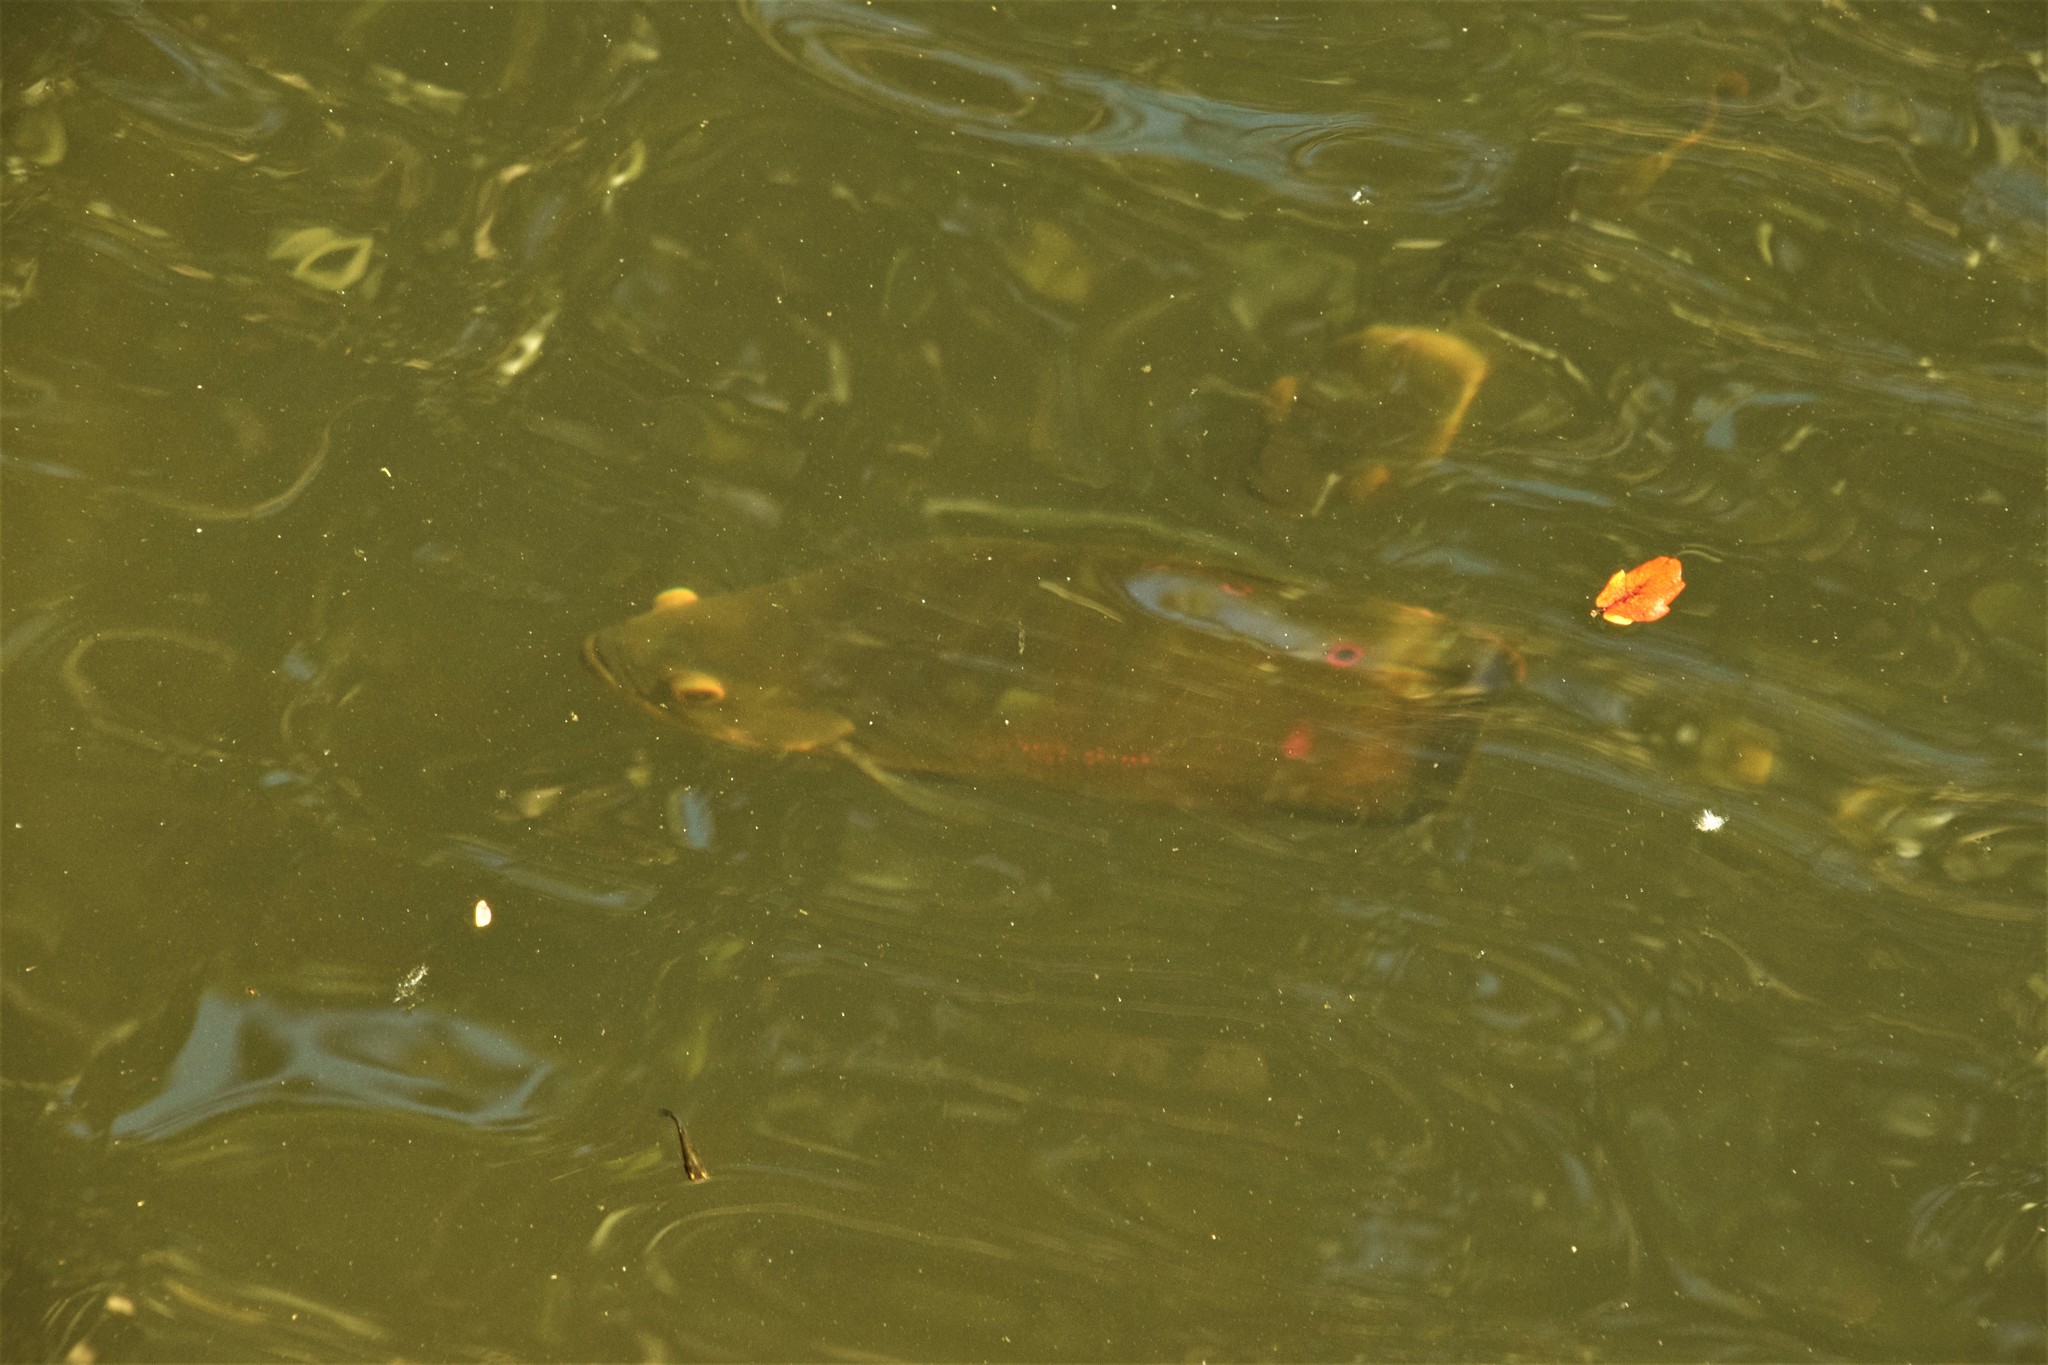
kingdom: Animalia
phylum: Chordata
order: Perciformes
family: Cichlidae
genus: Astronotus
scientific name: Astronotus ocellatus
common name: Oscar
